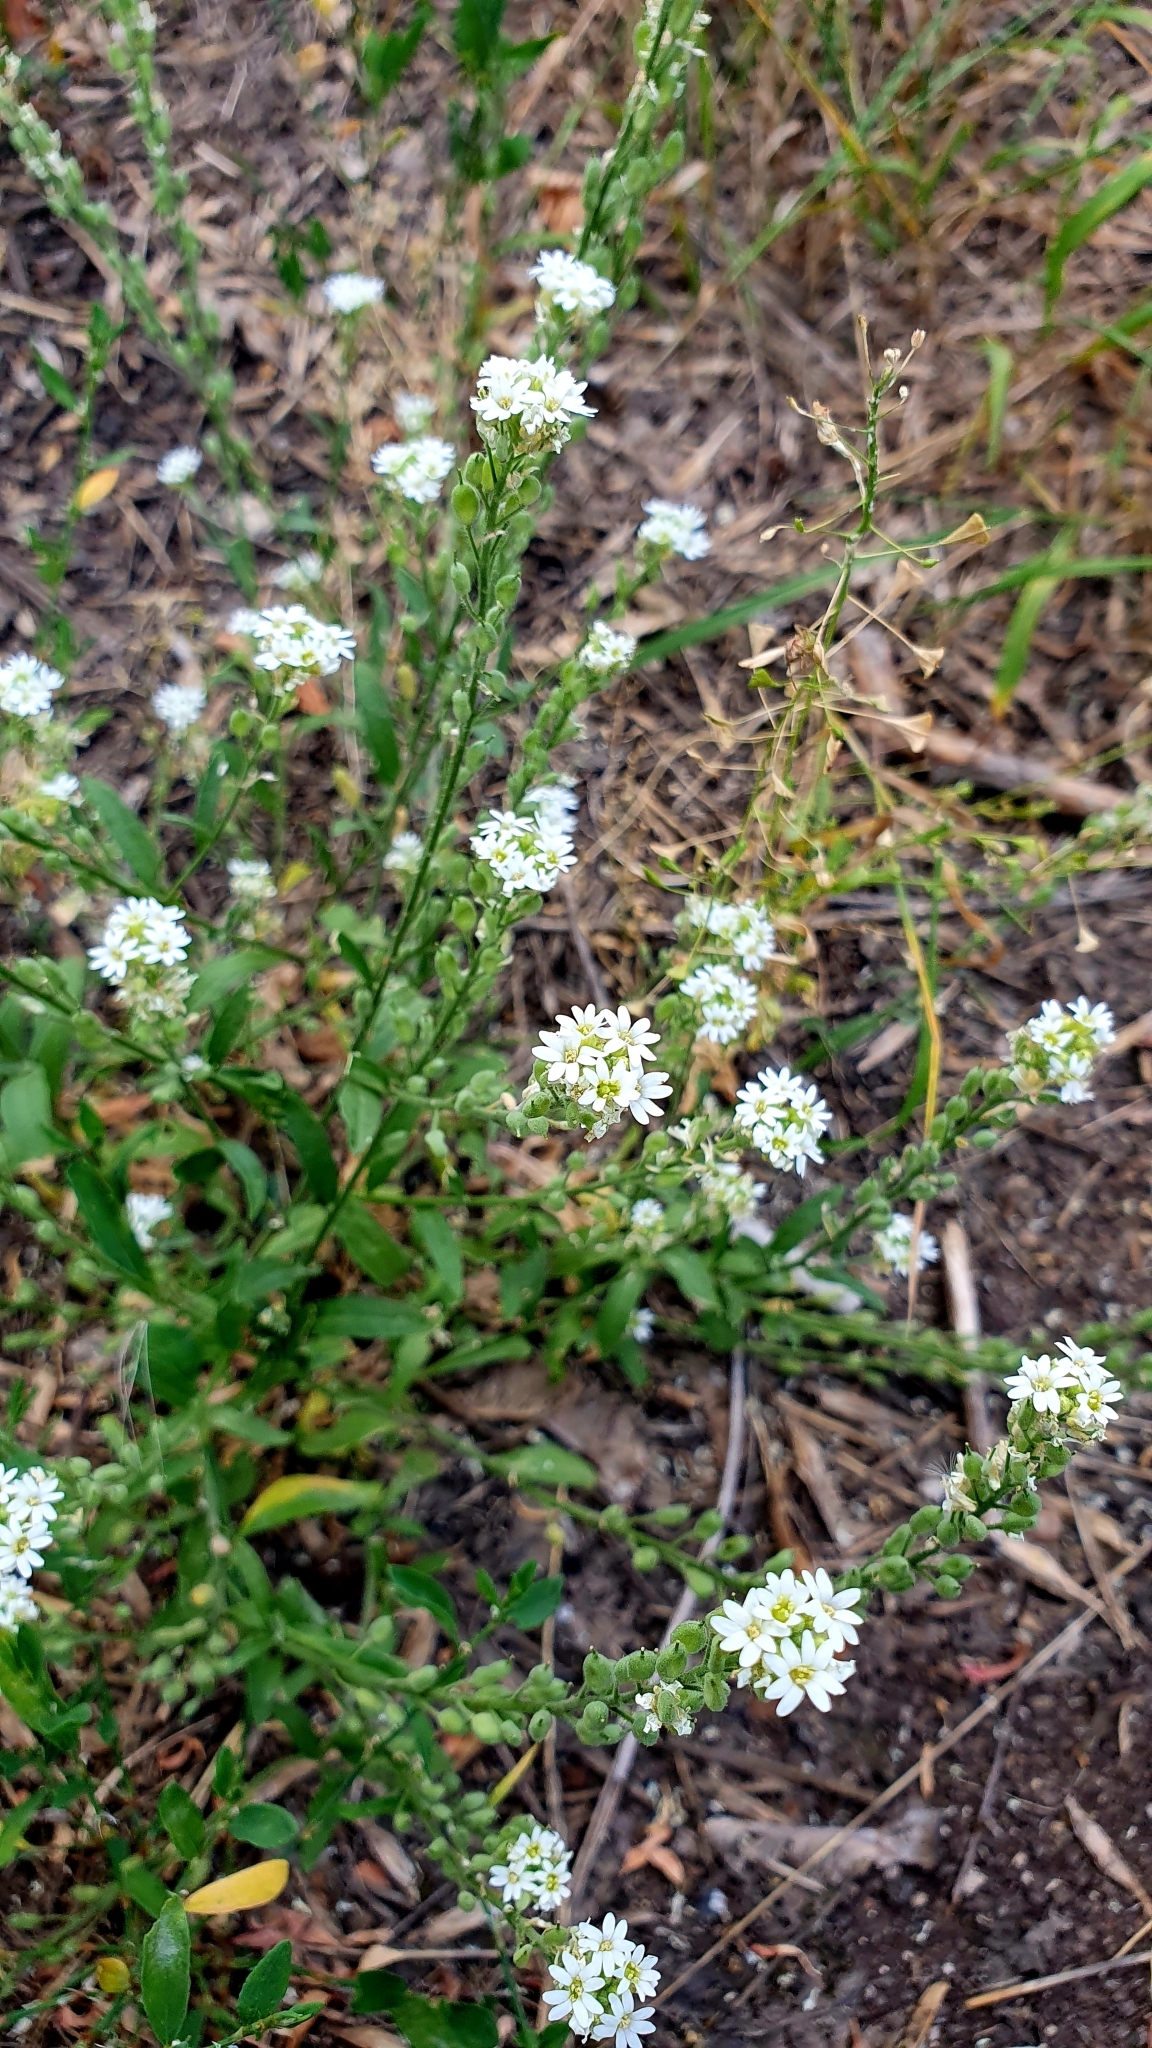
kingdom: Plantae
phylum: Tracheophyta
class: Magnoliopsida
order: Brassicales
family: Brassicaceae
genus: Berteroa
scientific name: Berteroa incana
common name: Hoary alison
